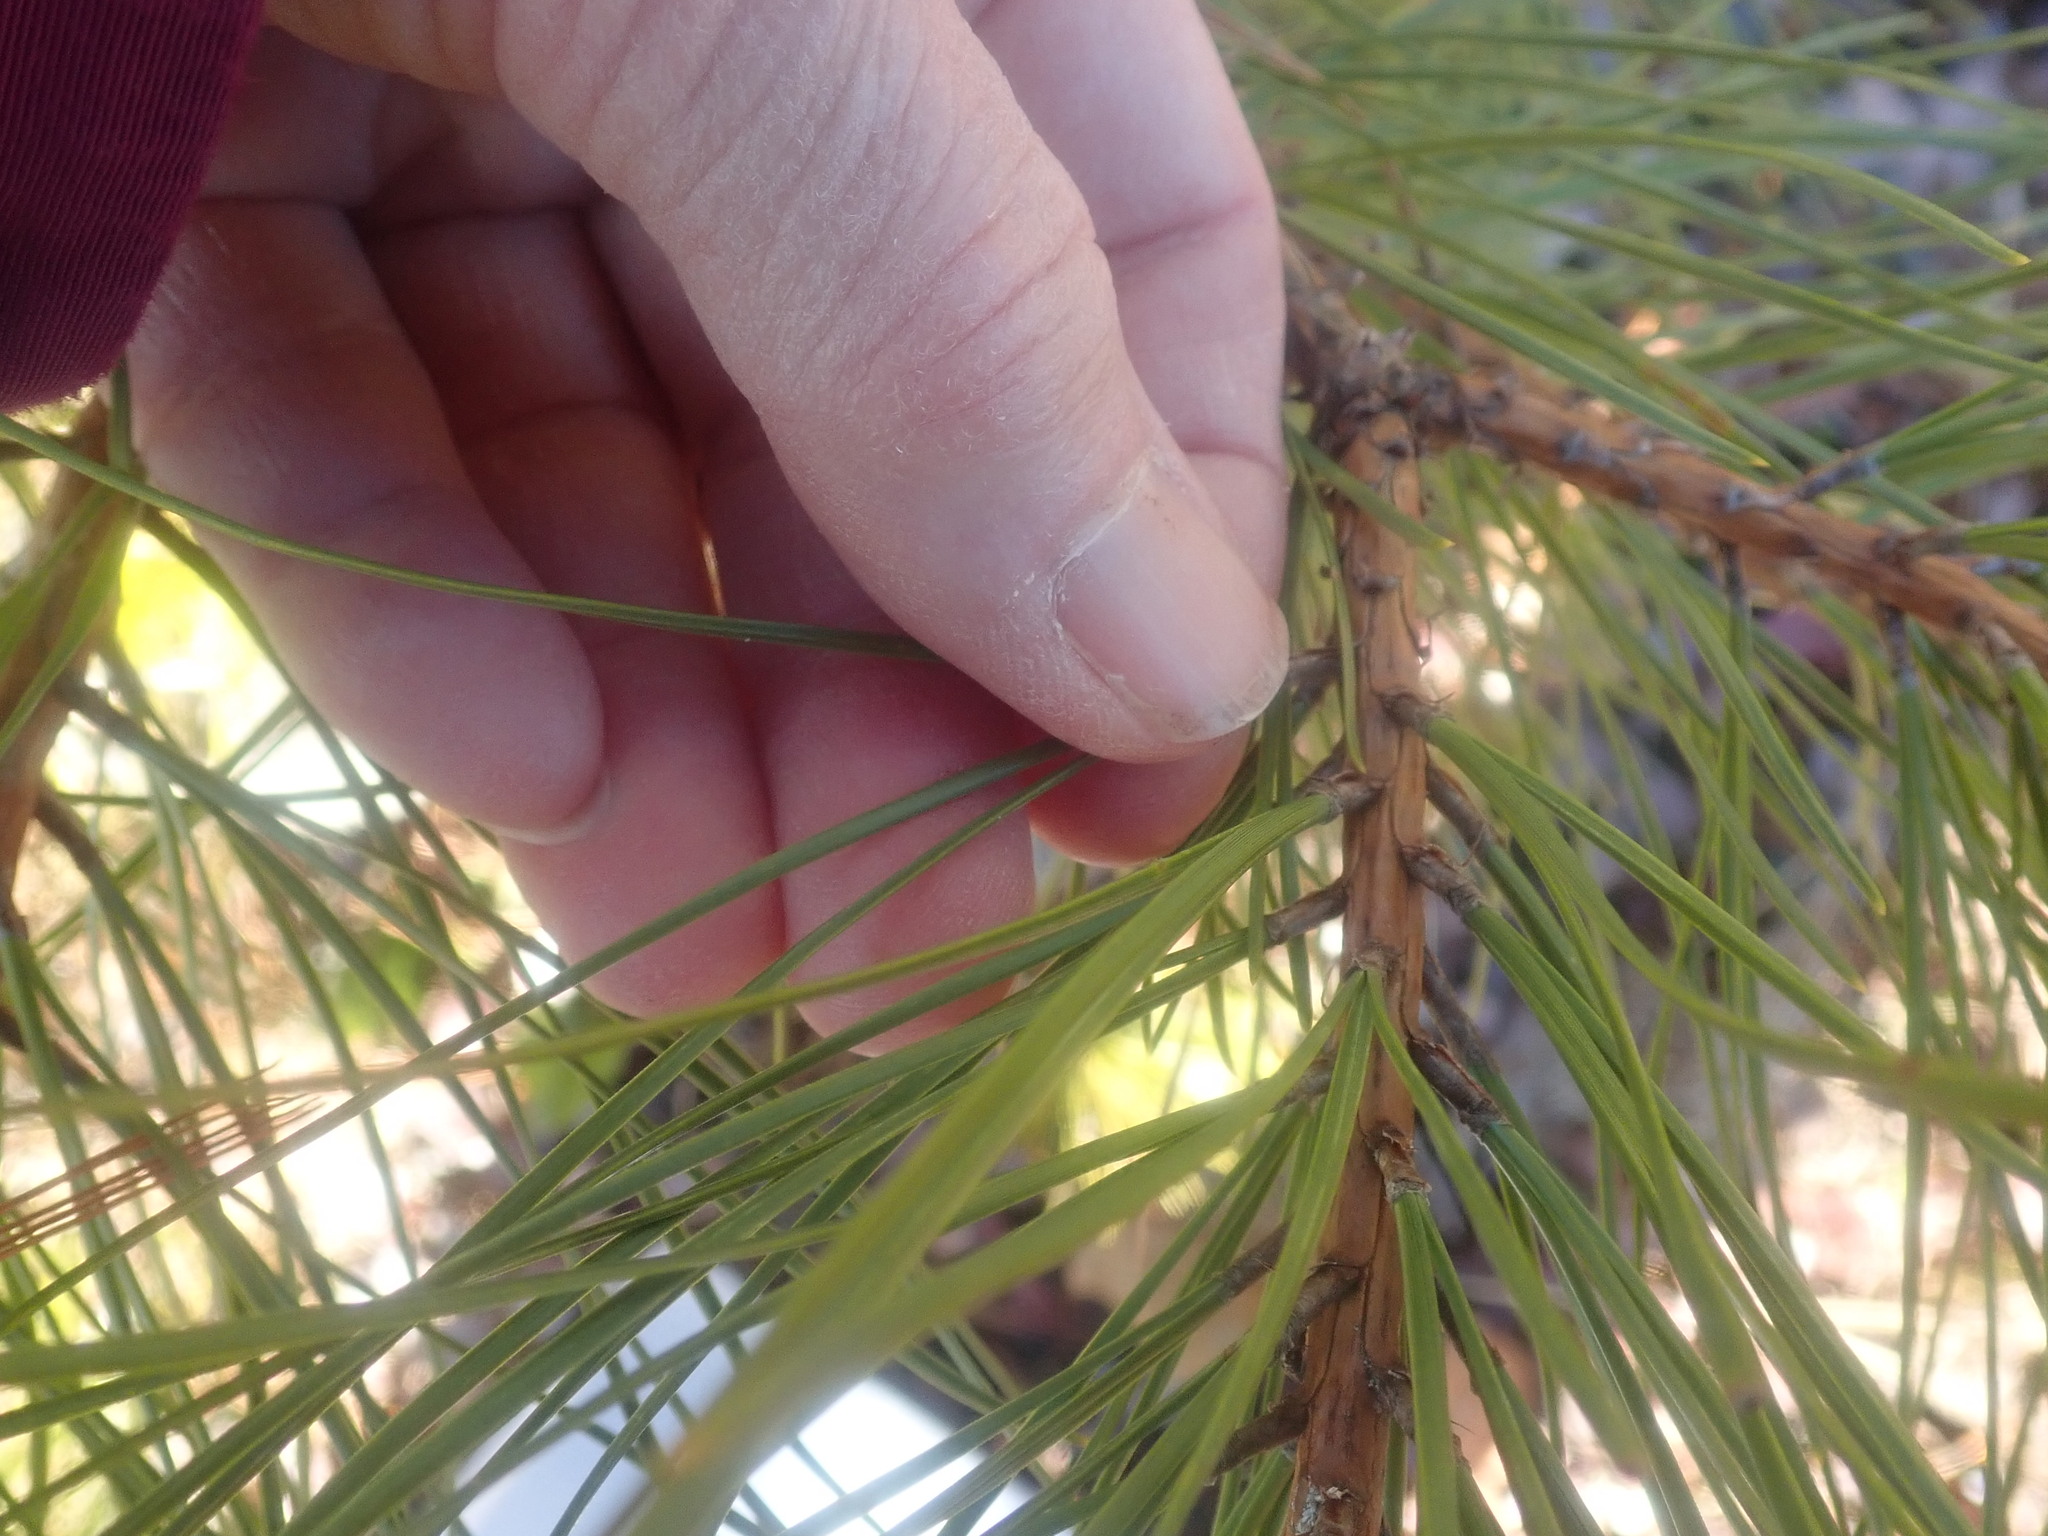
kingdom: Plantae
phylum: Tracheophyta
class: Pinopsida
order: Pinales
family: Pinaceae
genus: Pinus
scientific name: Pinus rigida
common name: Pitch pine
